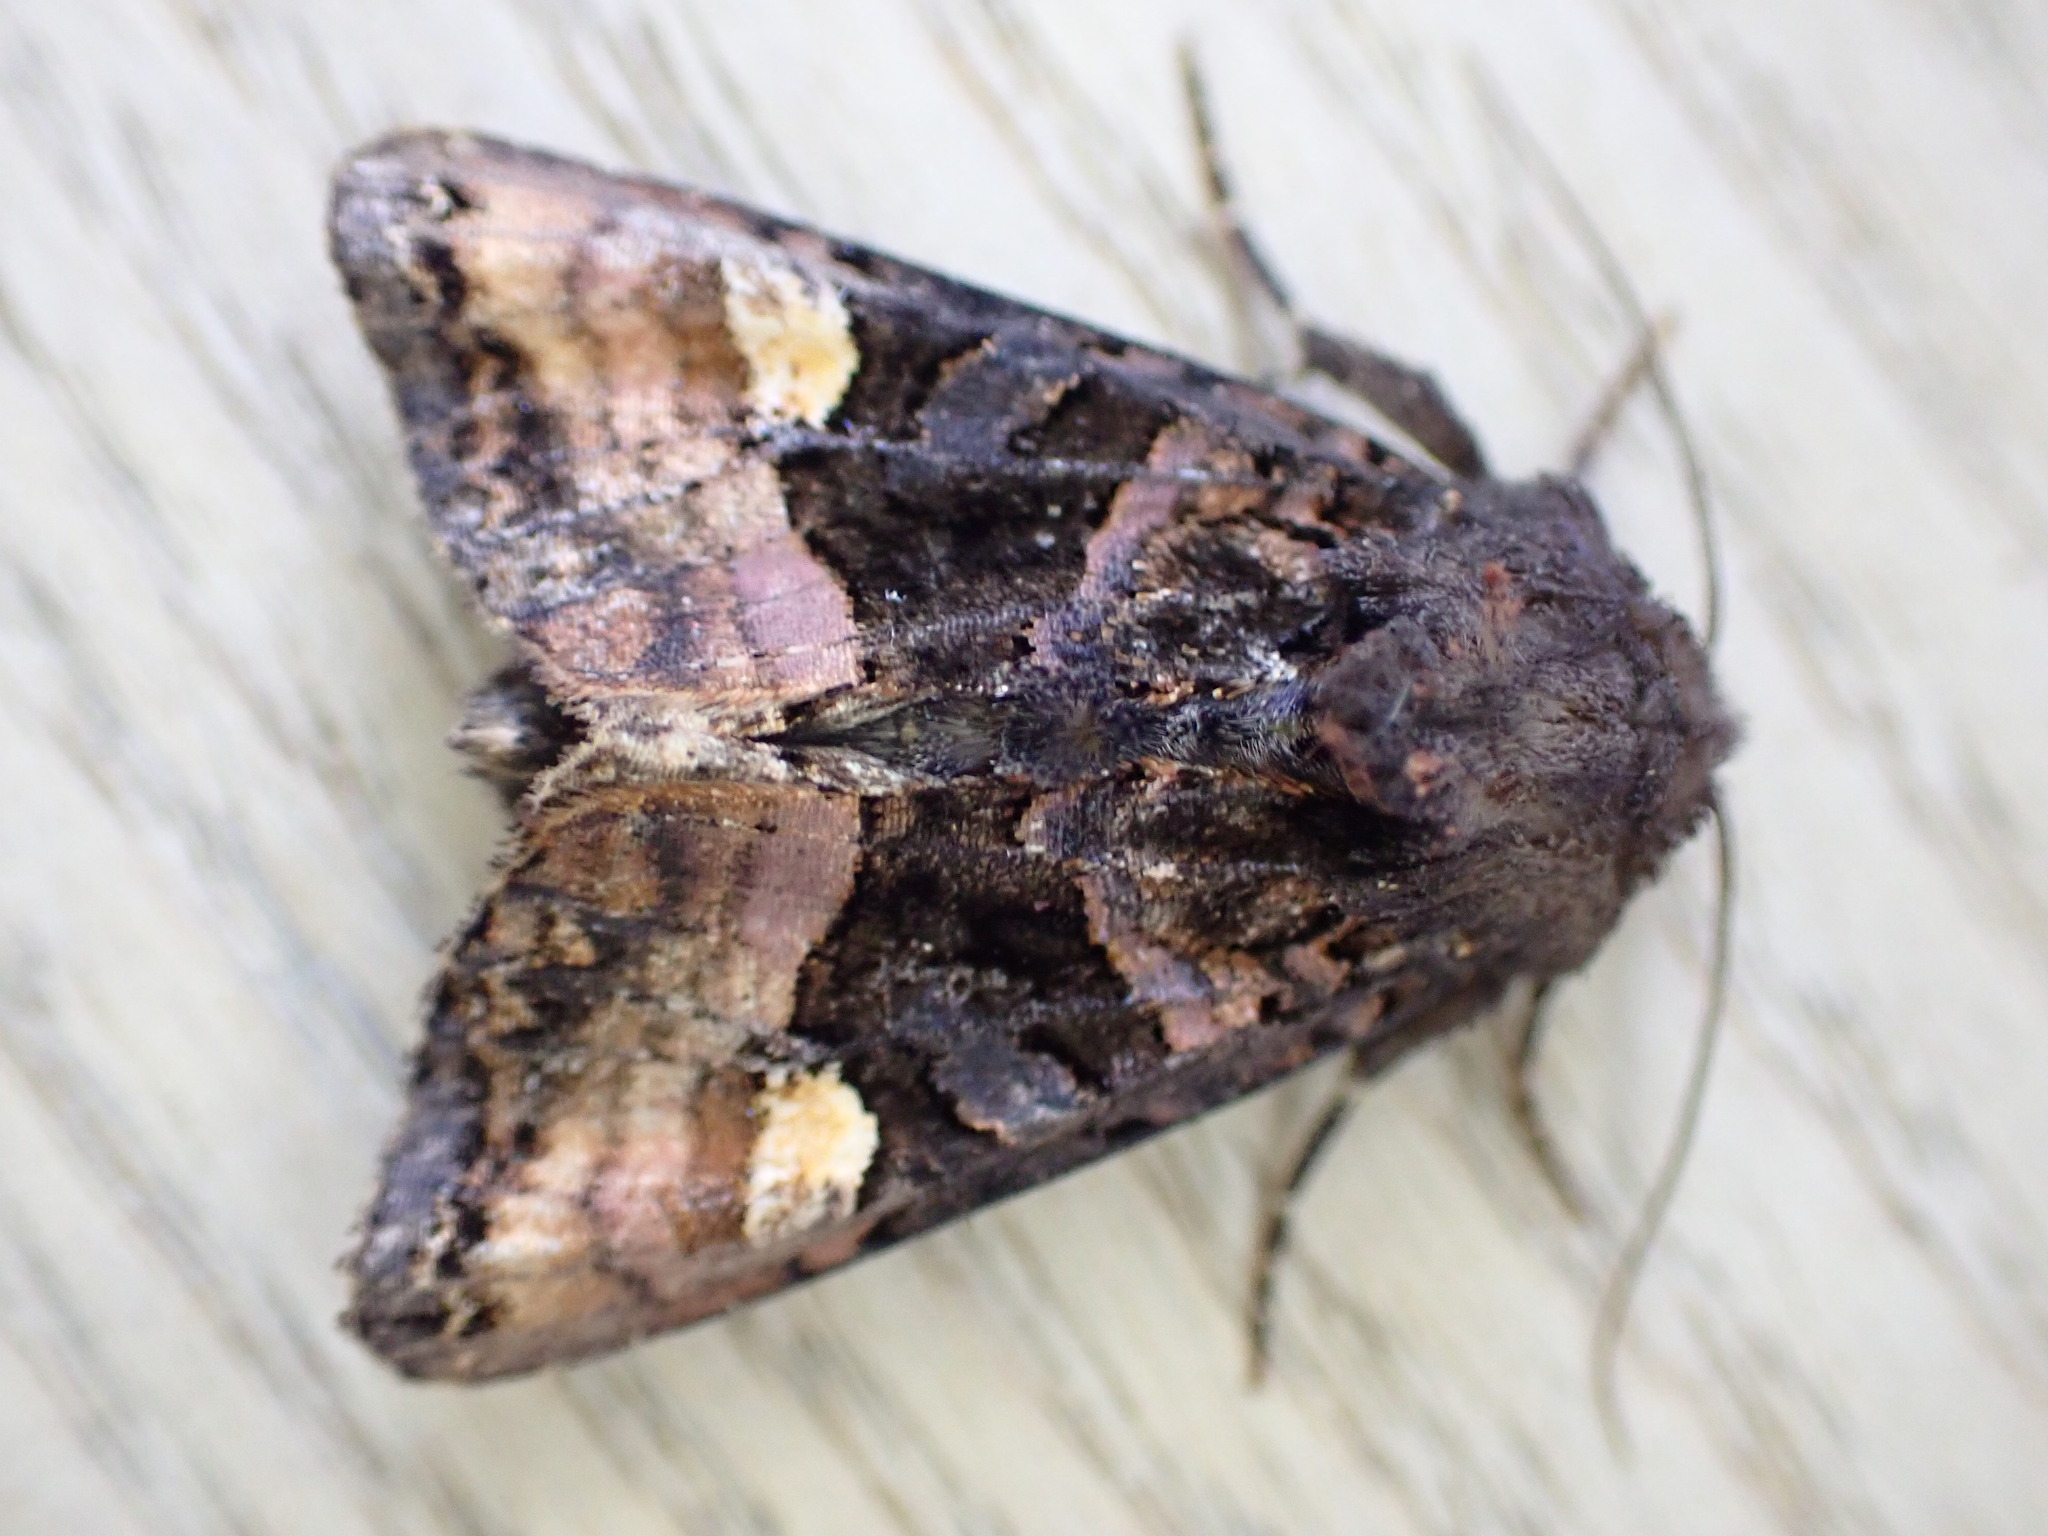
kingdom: Animalia
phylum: Arthropoda
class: Insecta
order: Lepidoptera
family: Noctuidae
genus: Euplexia
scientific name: Euplexia lucipara
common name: Small angle shades
